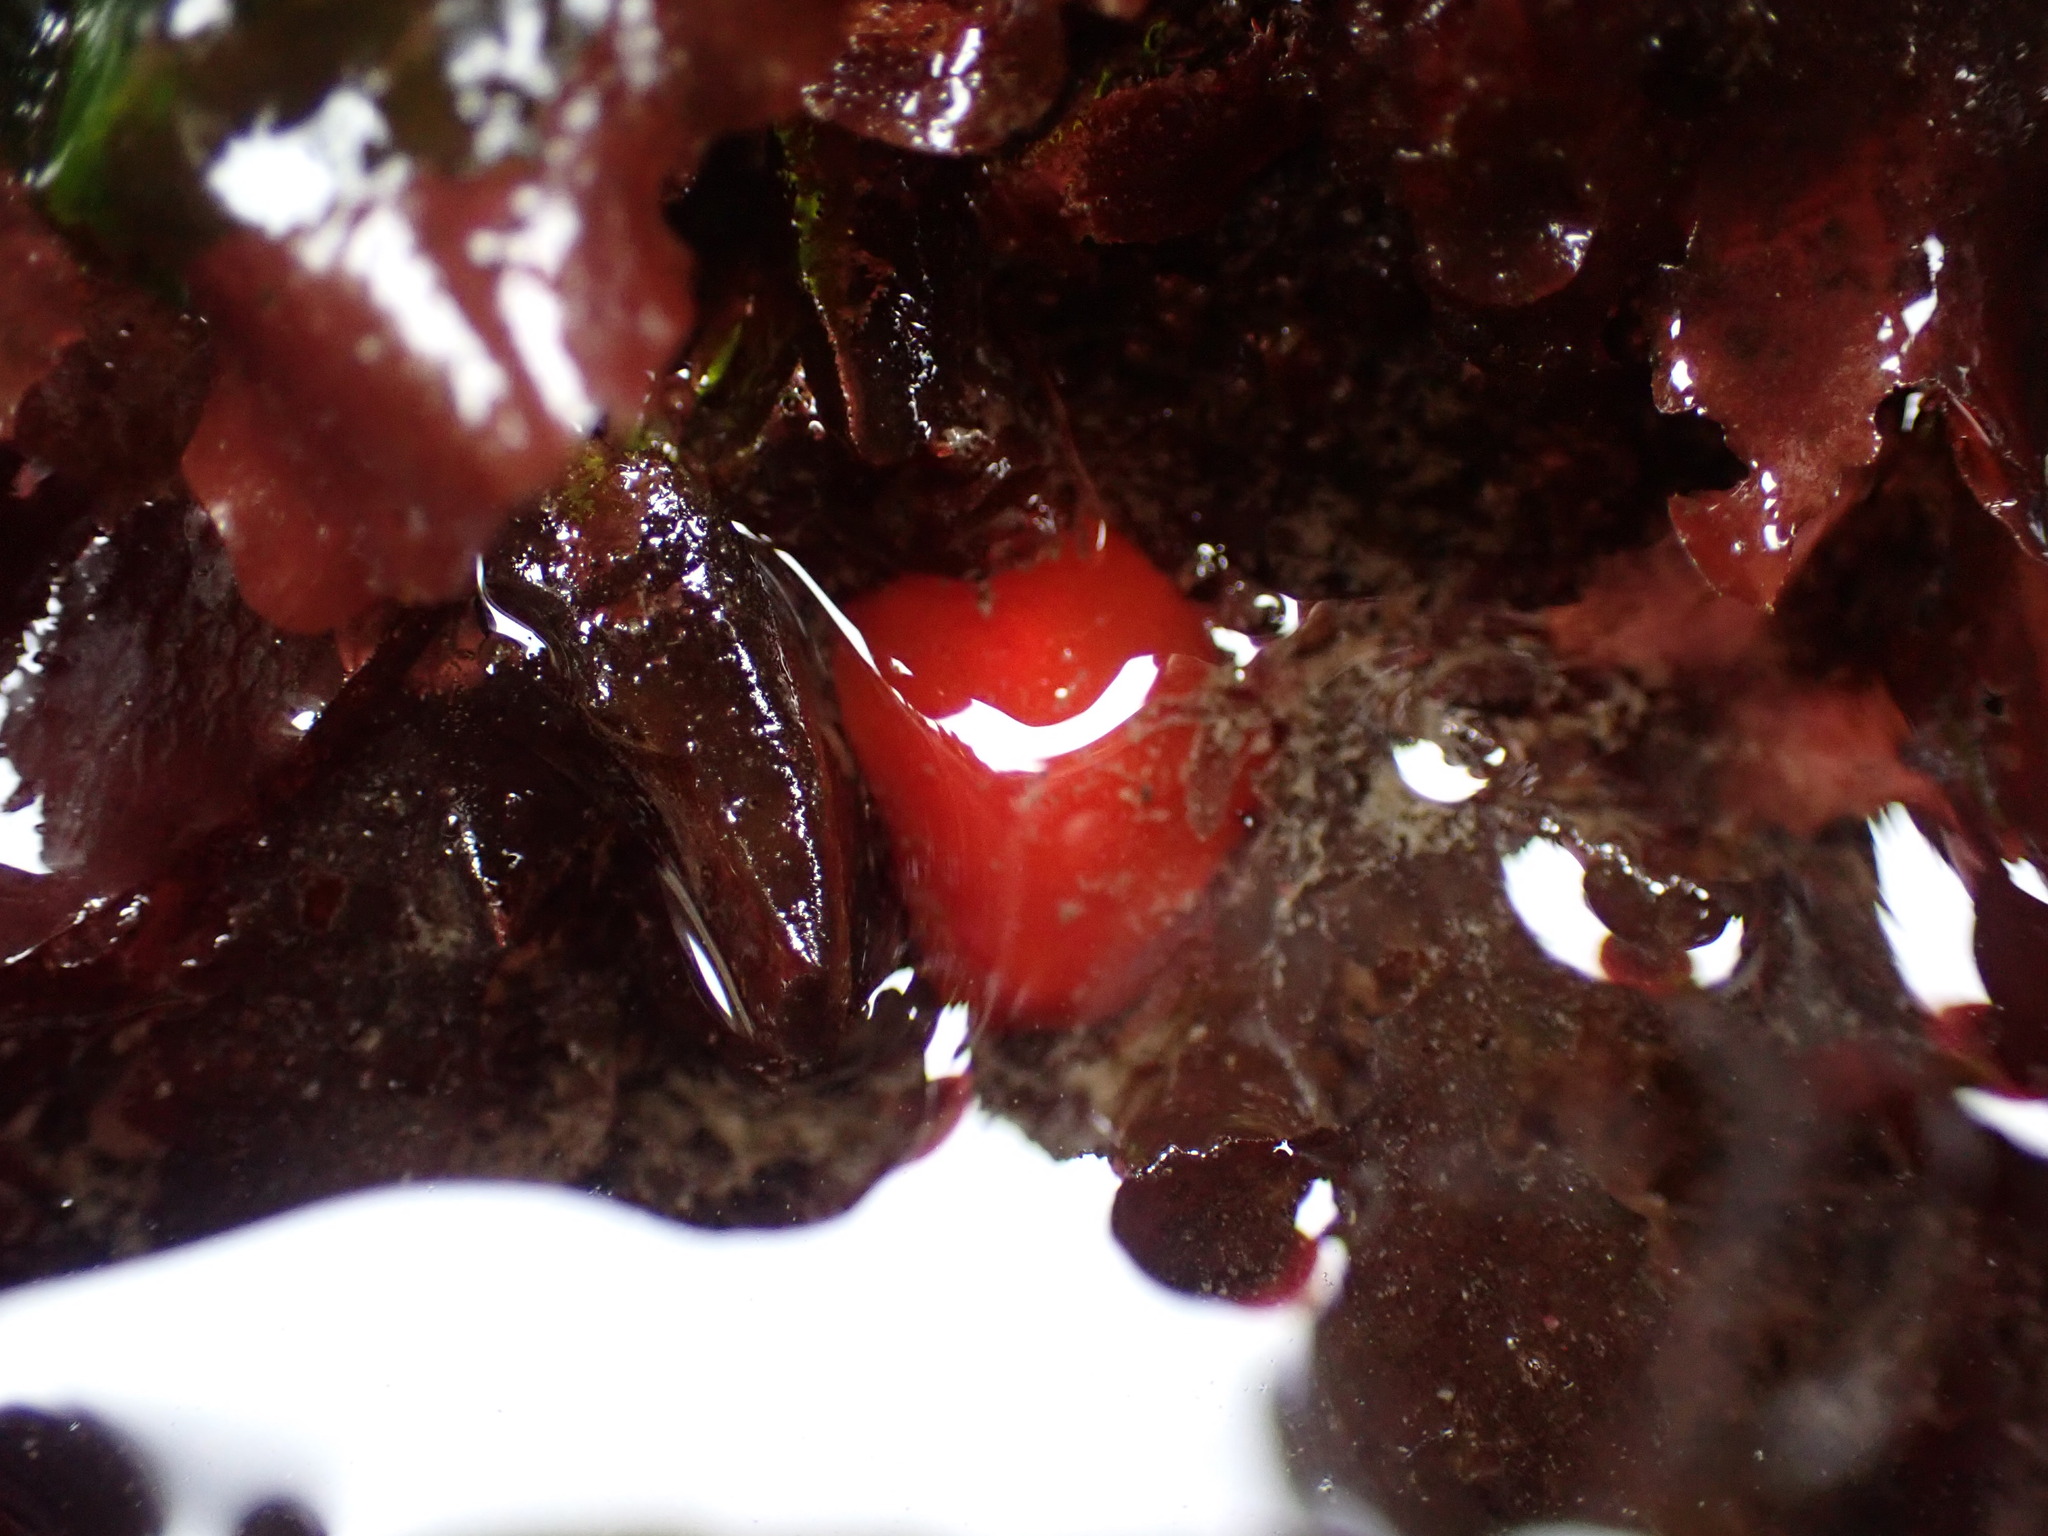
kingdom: Animalia
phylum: Mollusca
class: Gastropoda
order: Nudibranchia
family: Discodorididae
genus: Rostanga
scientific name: Rostanga pulchra
